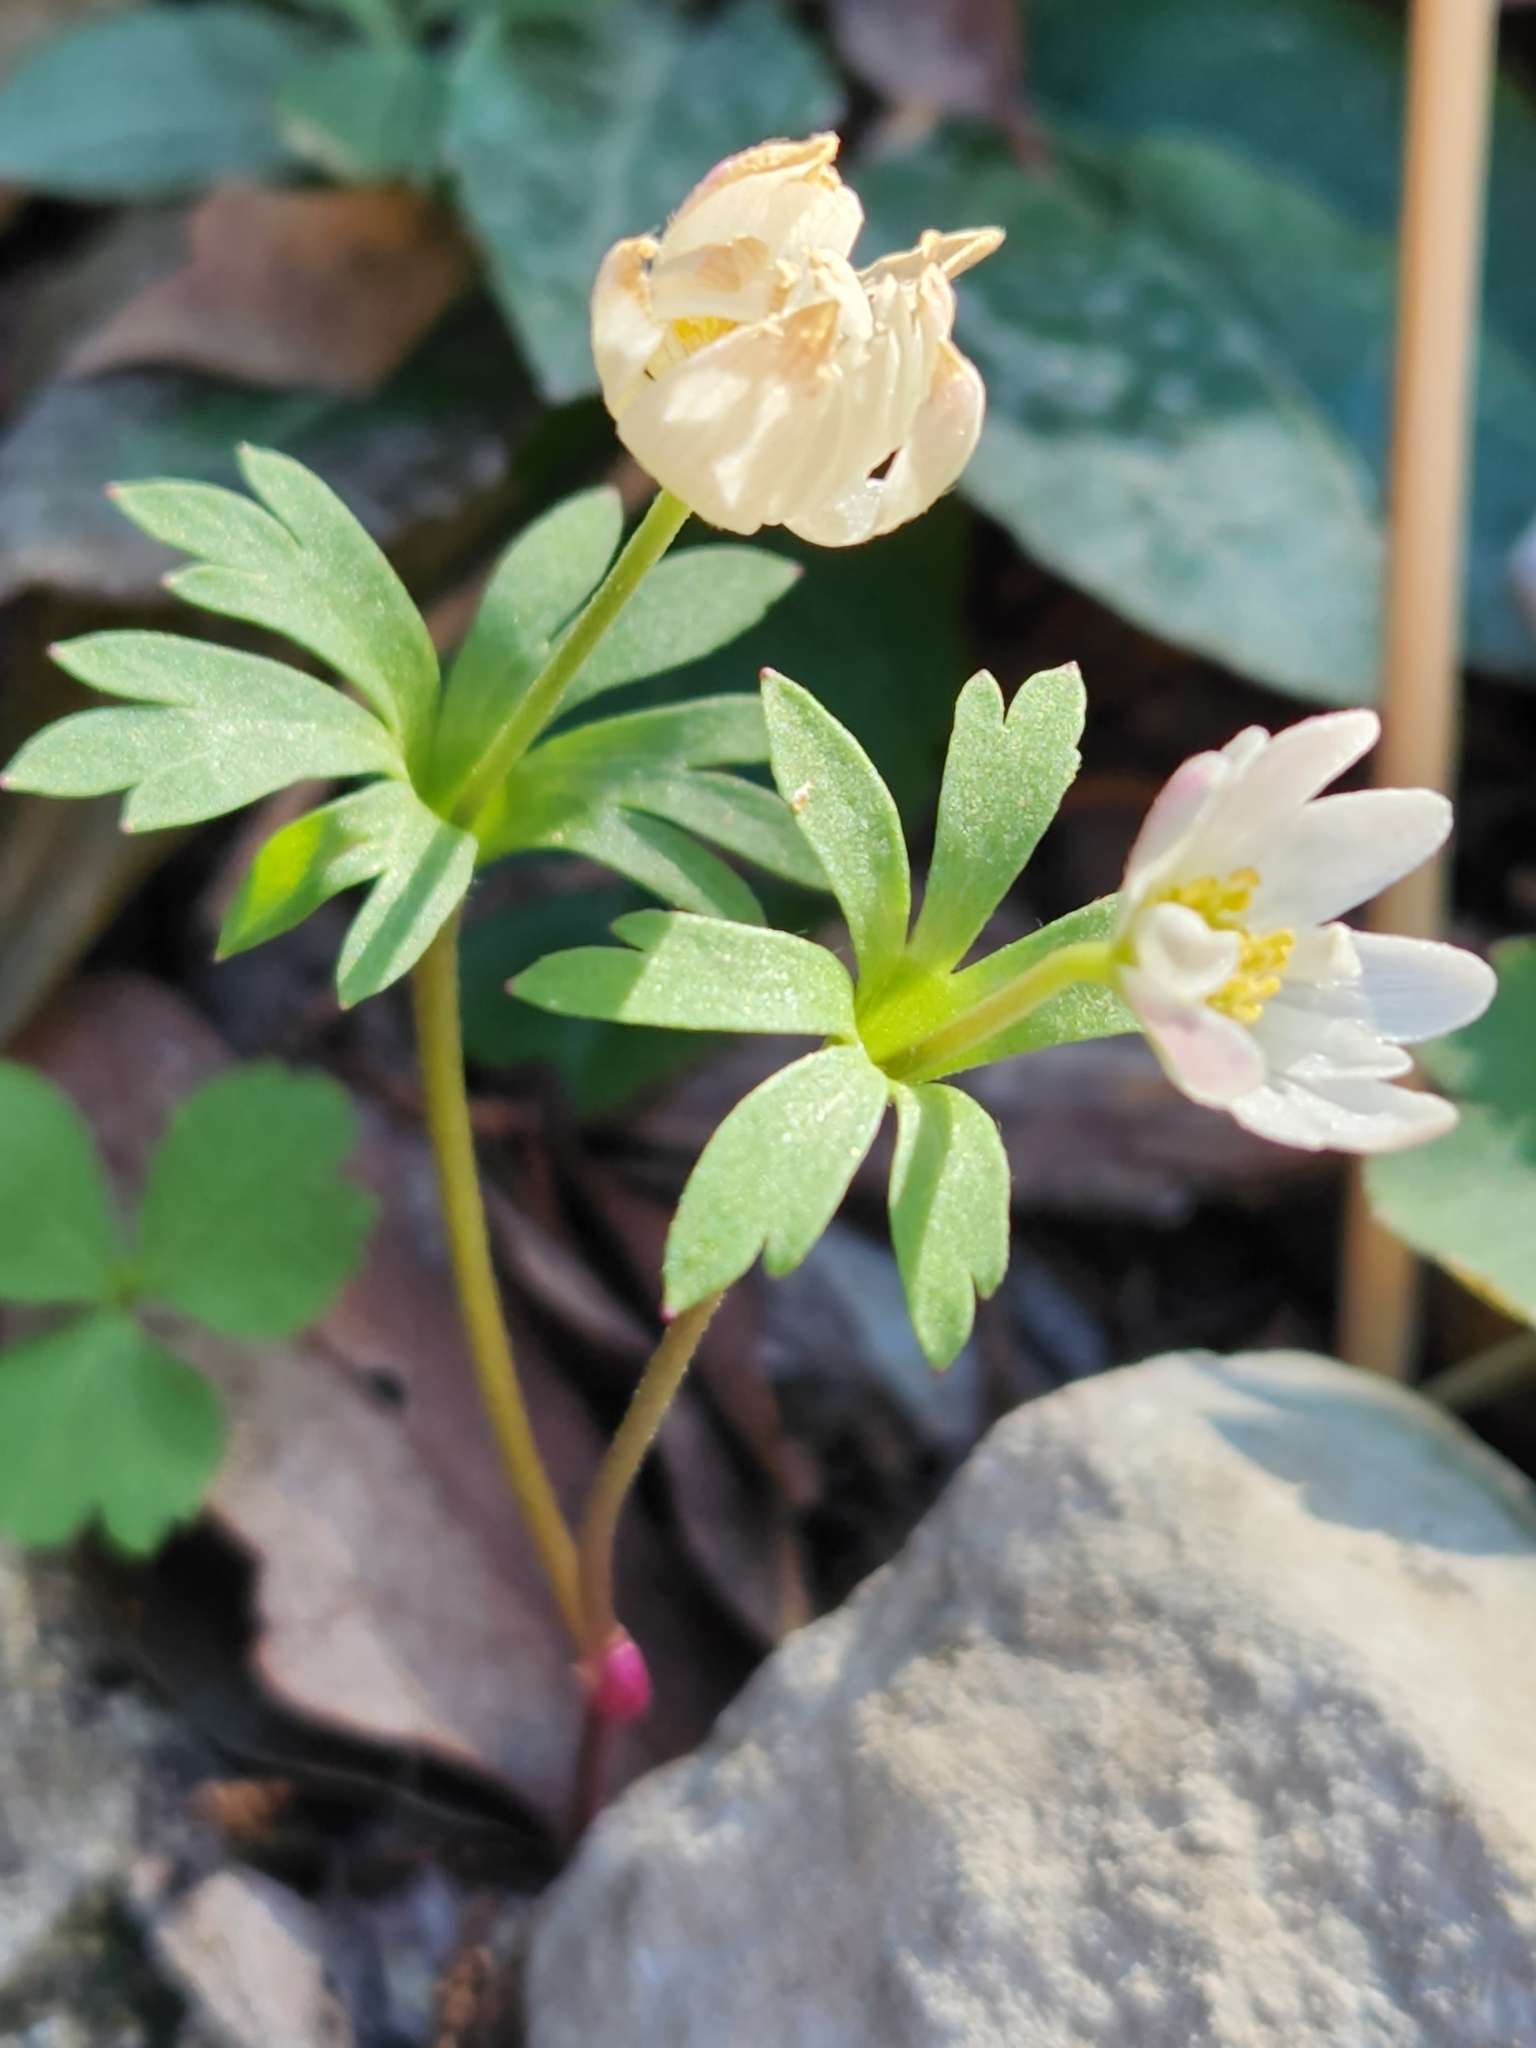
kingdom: Plantae
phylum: Tracheophyta
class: Magnoliopsida
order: Ranunculales
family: Ranunculaceae
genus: Anemone
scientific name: Anemone edwardsiana
